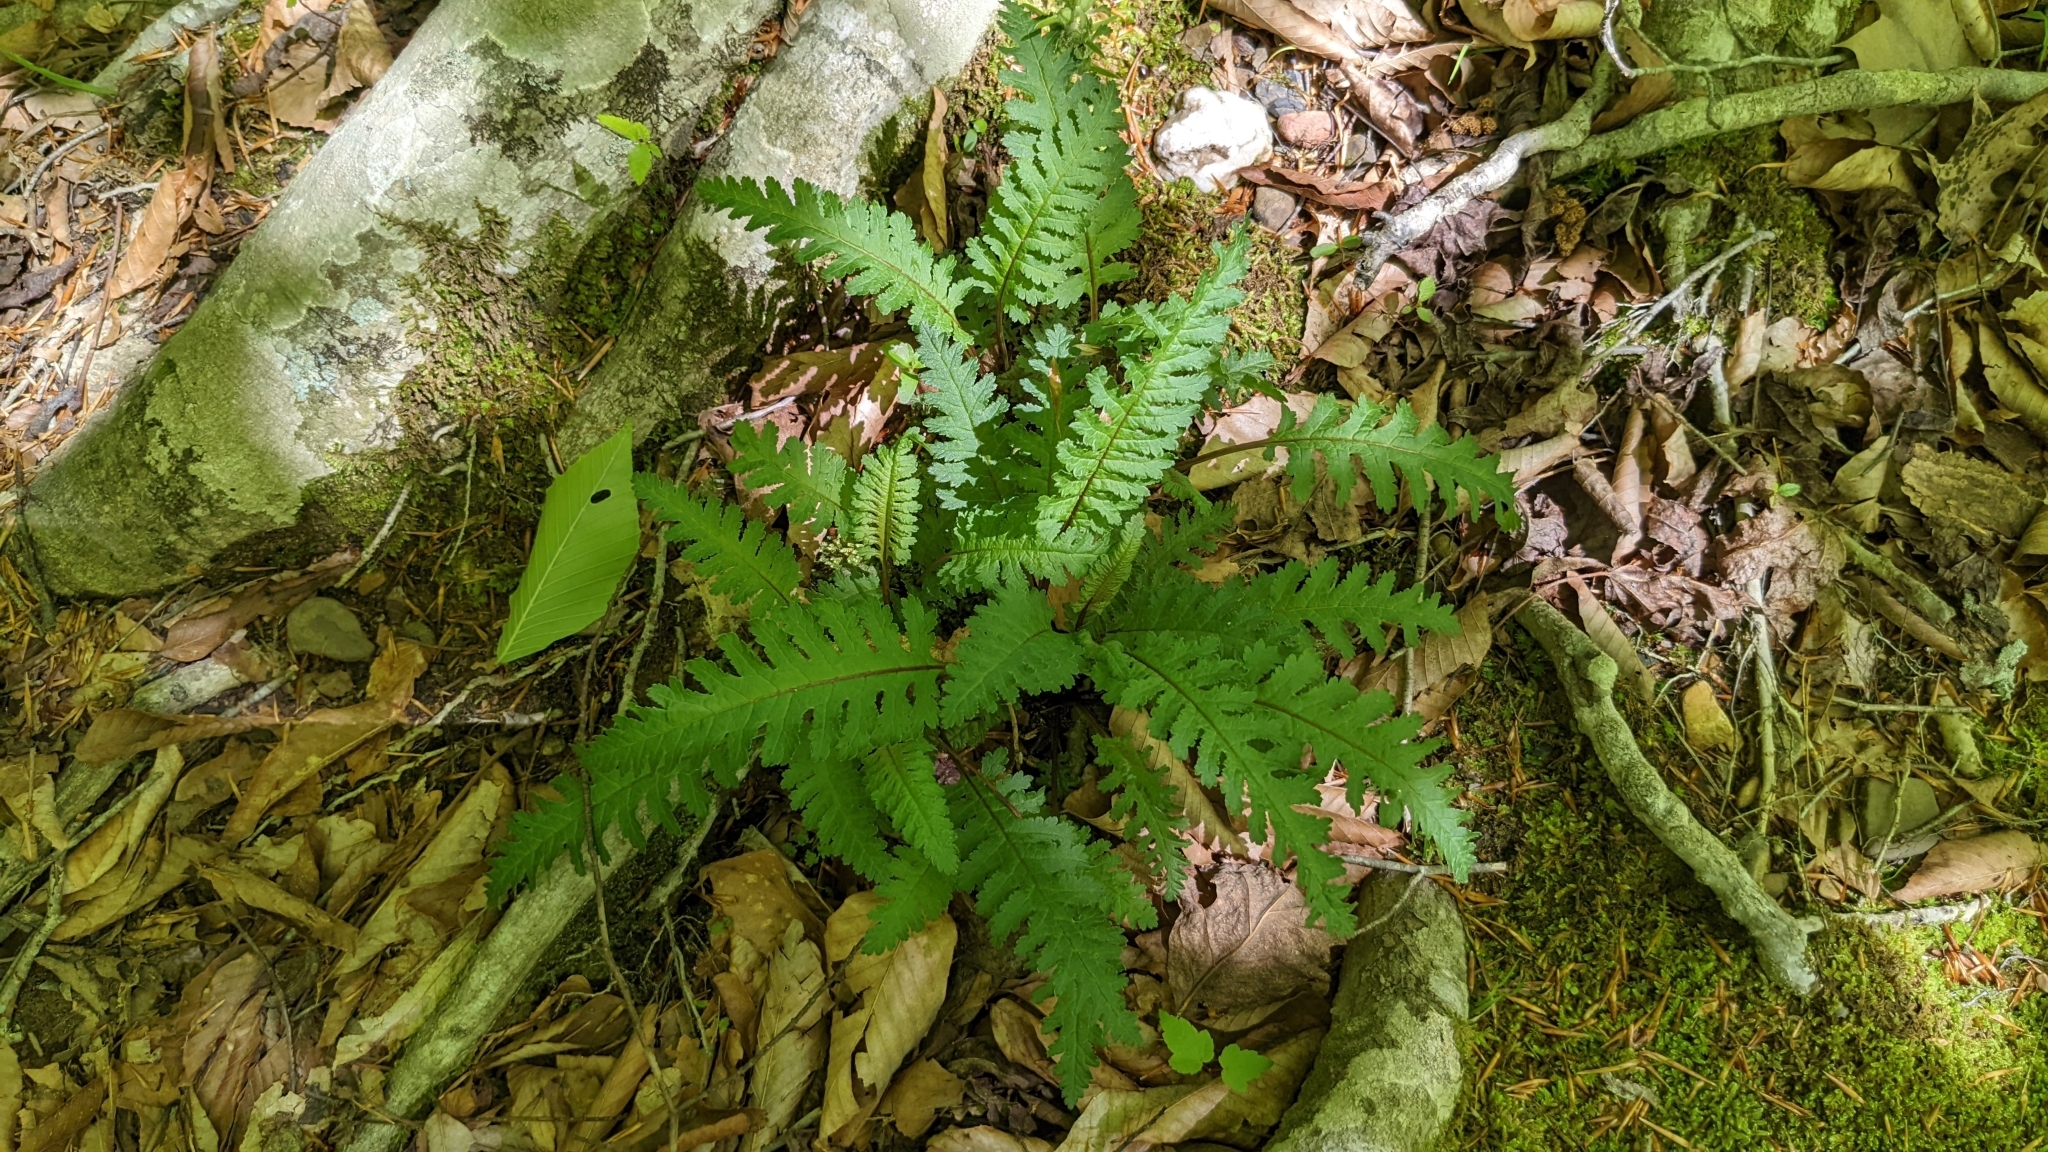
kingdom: Plantae
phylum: Tracheophyta
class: Magnoliopsida
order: Lamiales
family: Orobanchaceae
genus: Pedicularis
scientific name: Pedicularis canadensis
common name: Early lousewort
